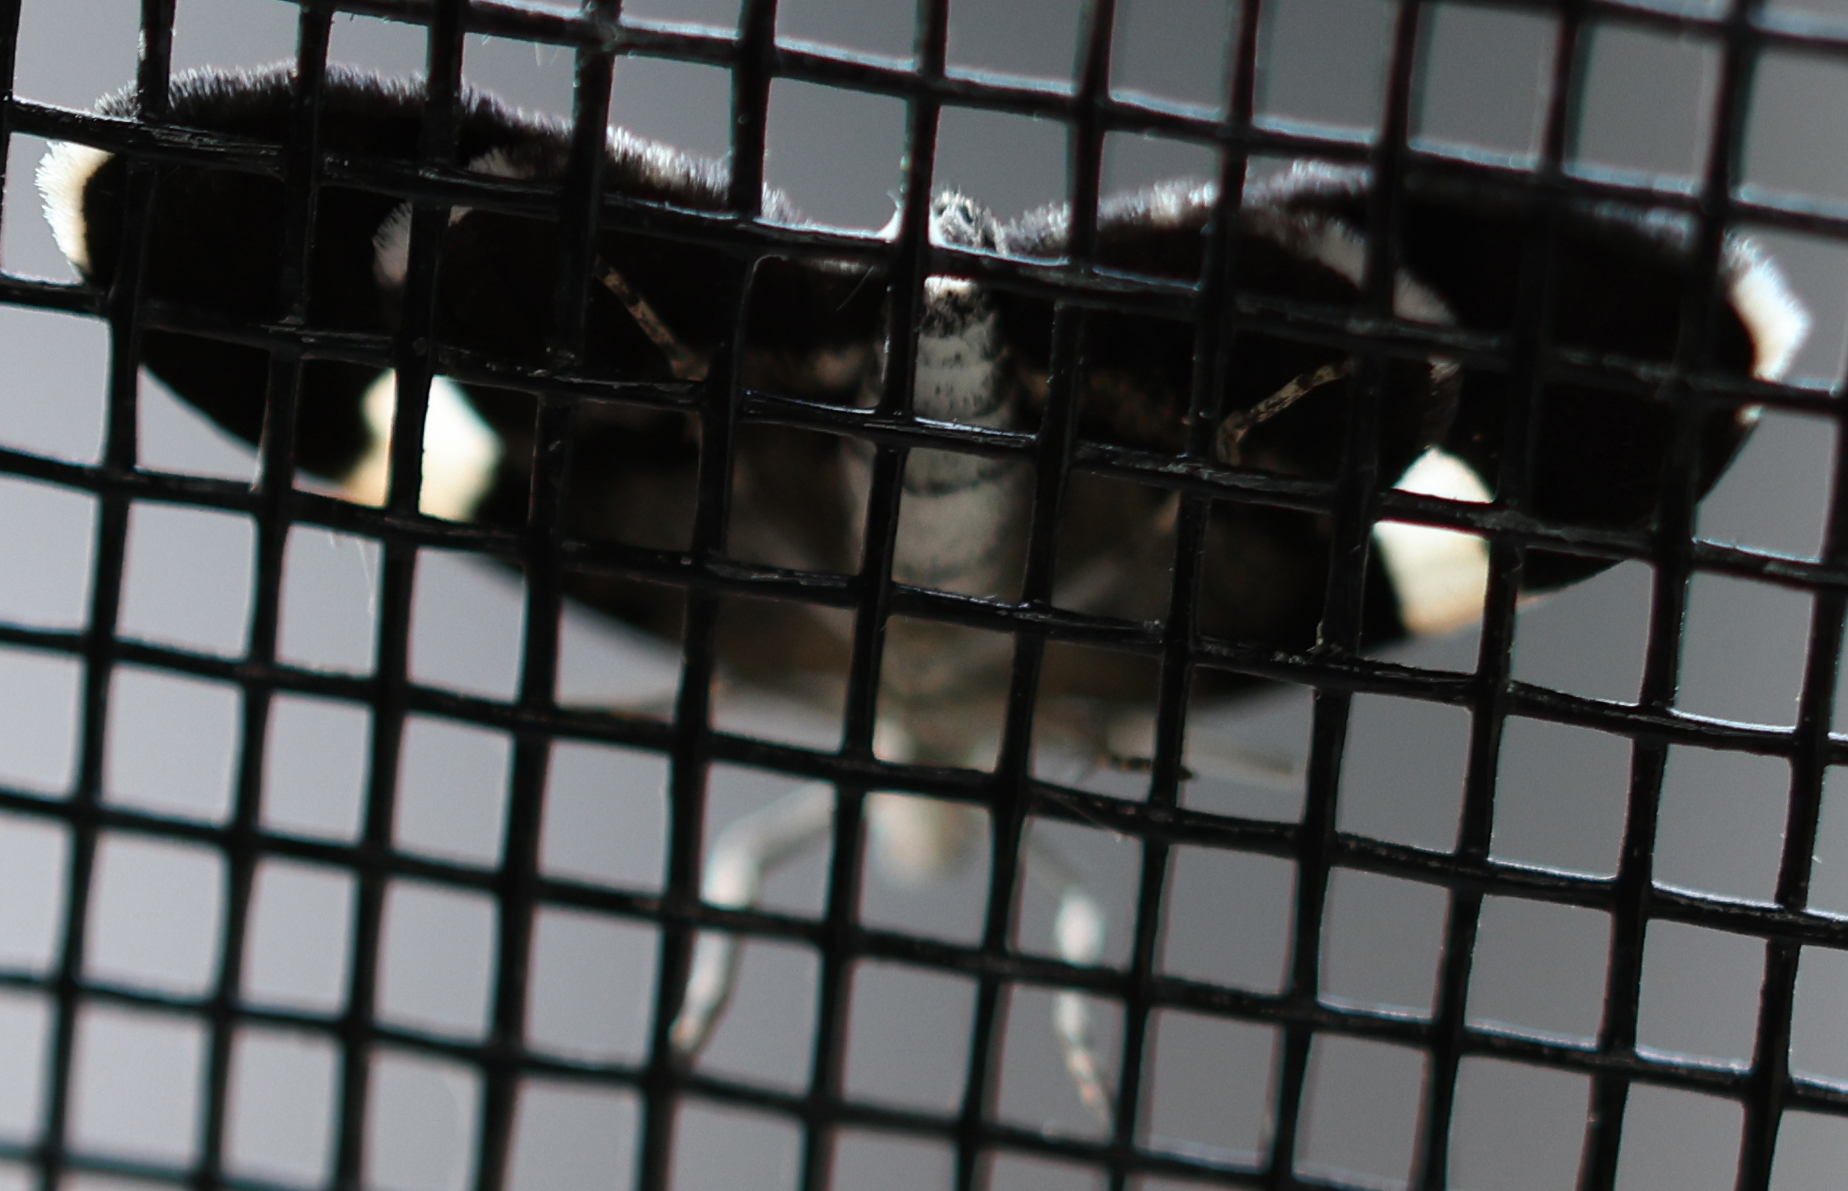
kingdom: Animalia
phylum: Arthropoda
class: Insecta
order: Lepidoptera
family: Geometridae
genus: Trichodezia
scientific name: Trichodezia albovittata
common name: White striped black
